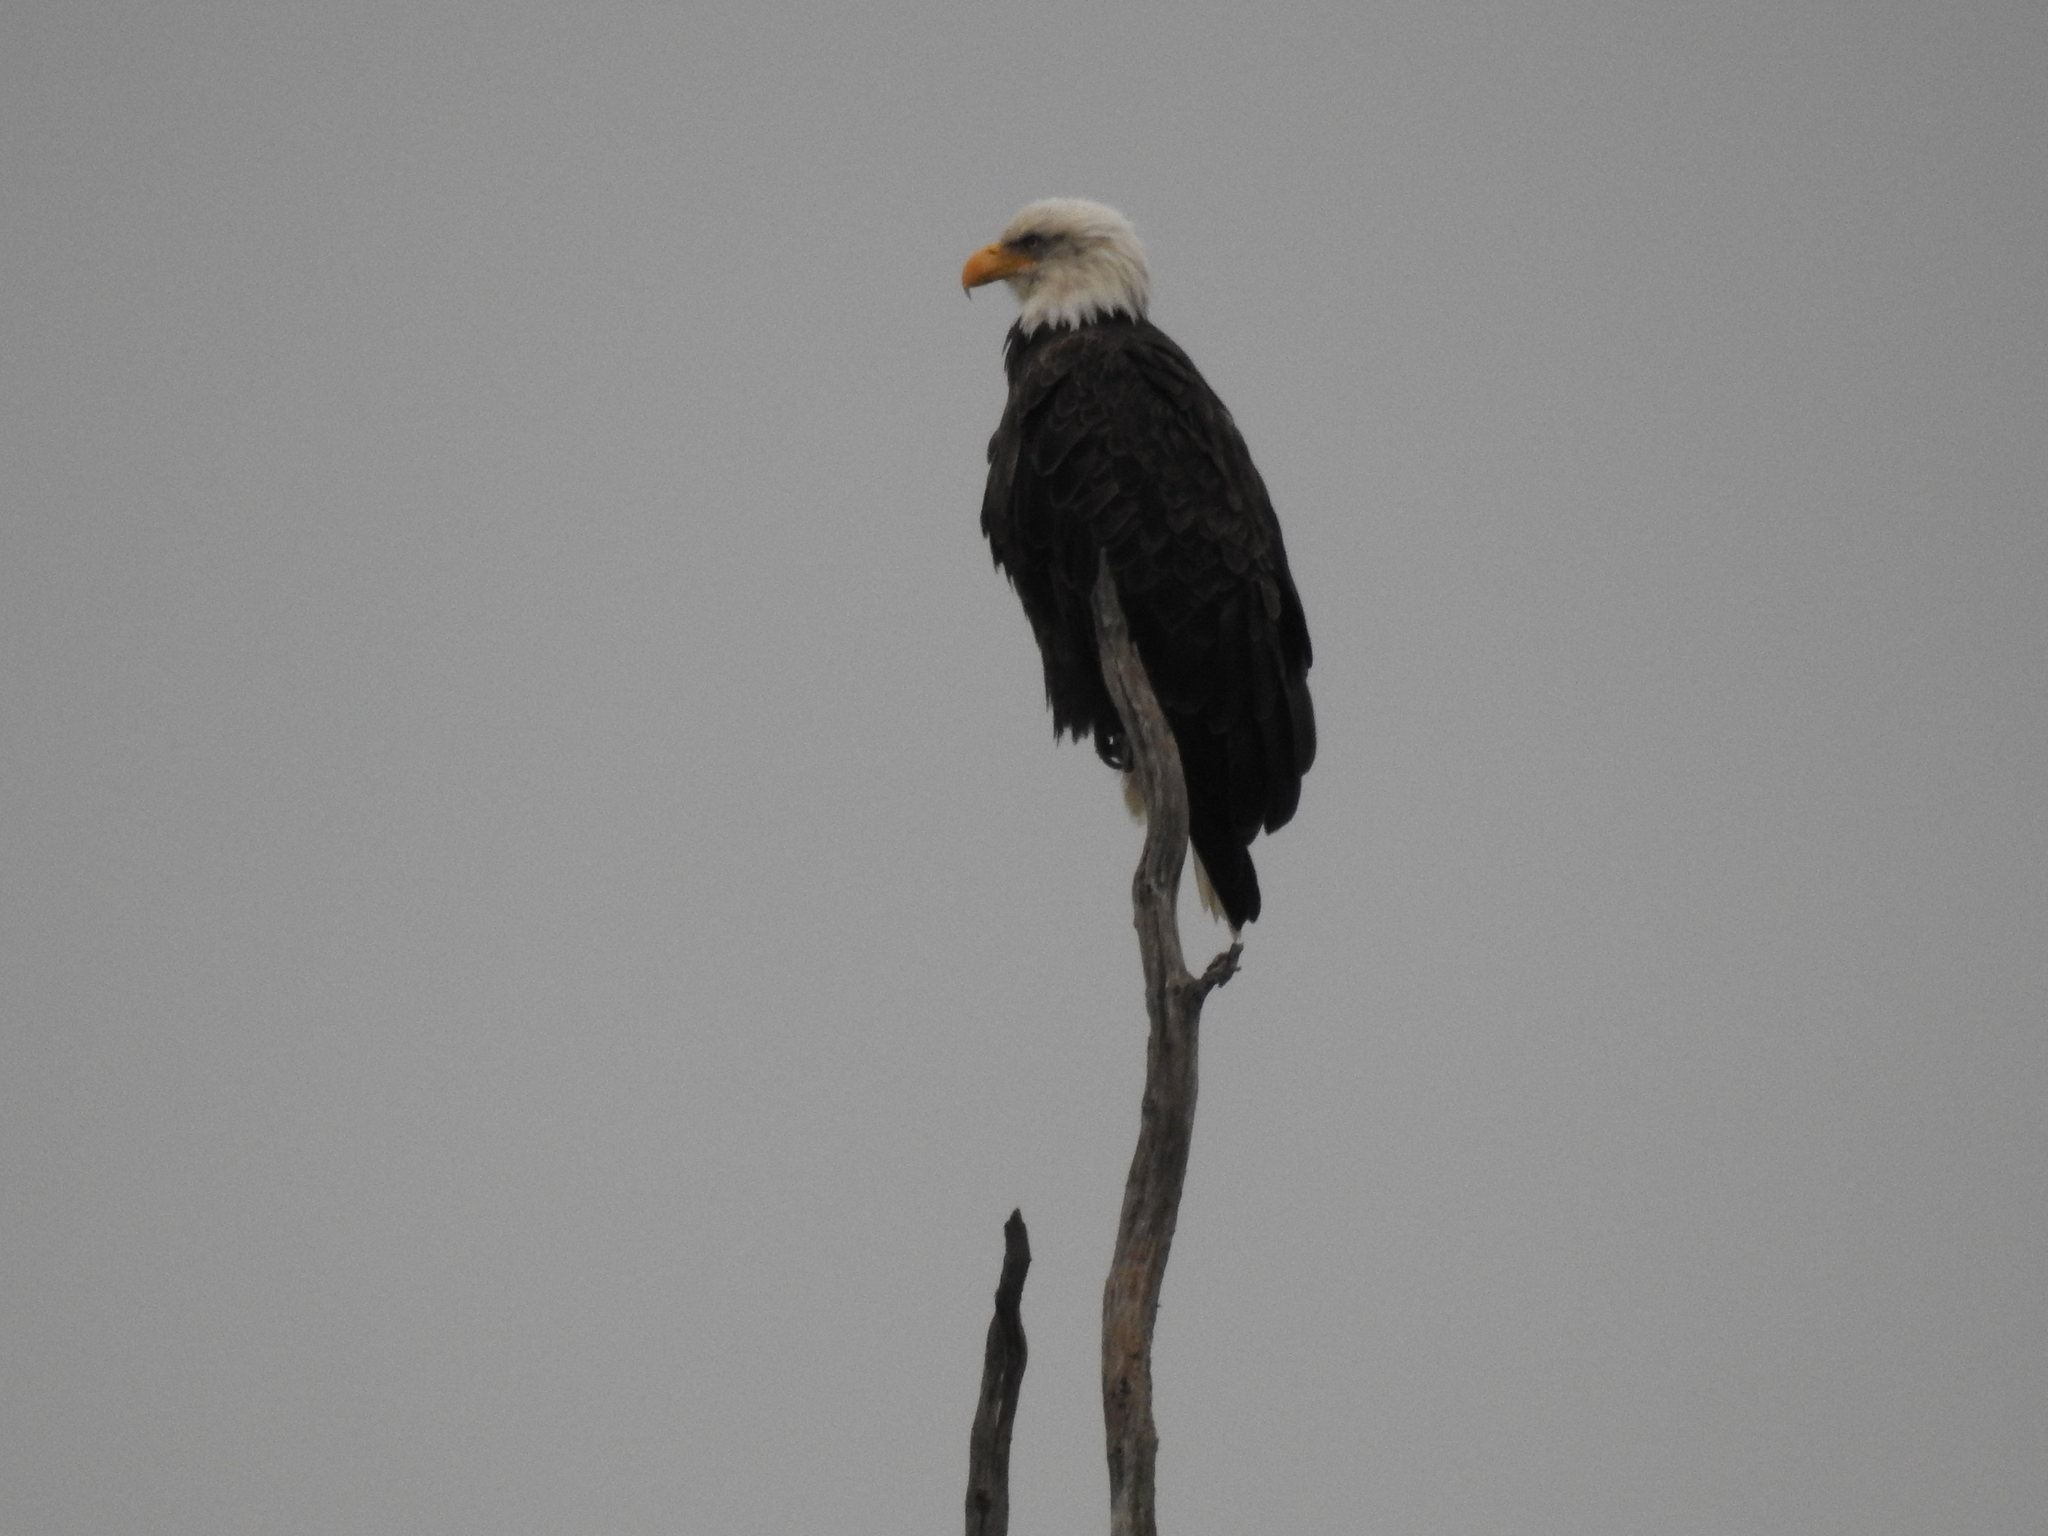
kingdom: Animalia
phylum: Chordata
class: Aves
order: Accipitriformes
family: Accipitridae
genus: Haliaeetus
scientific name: Haliaeetus leucocephalus
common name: Bald eagle
